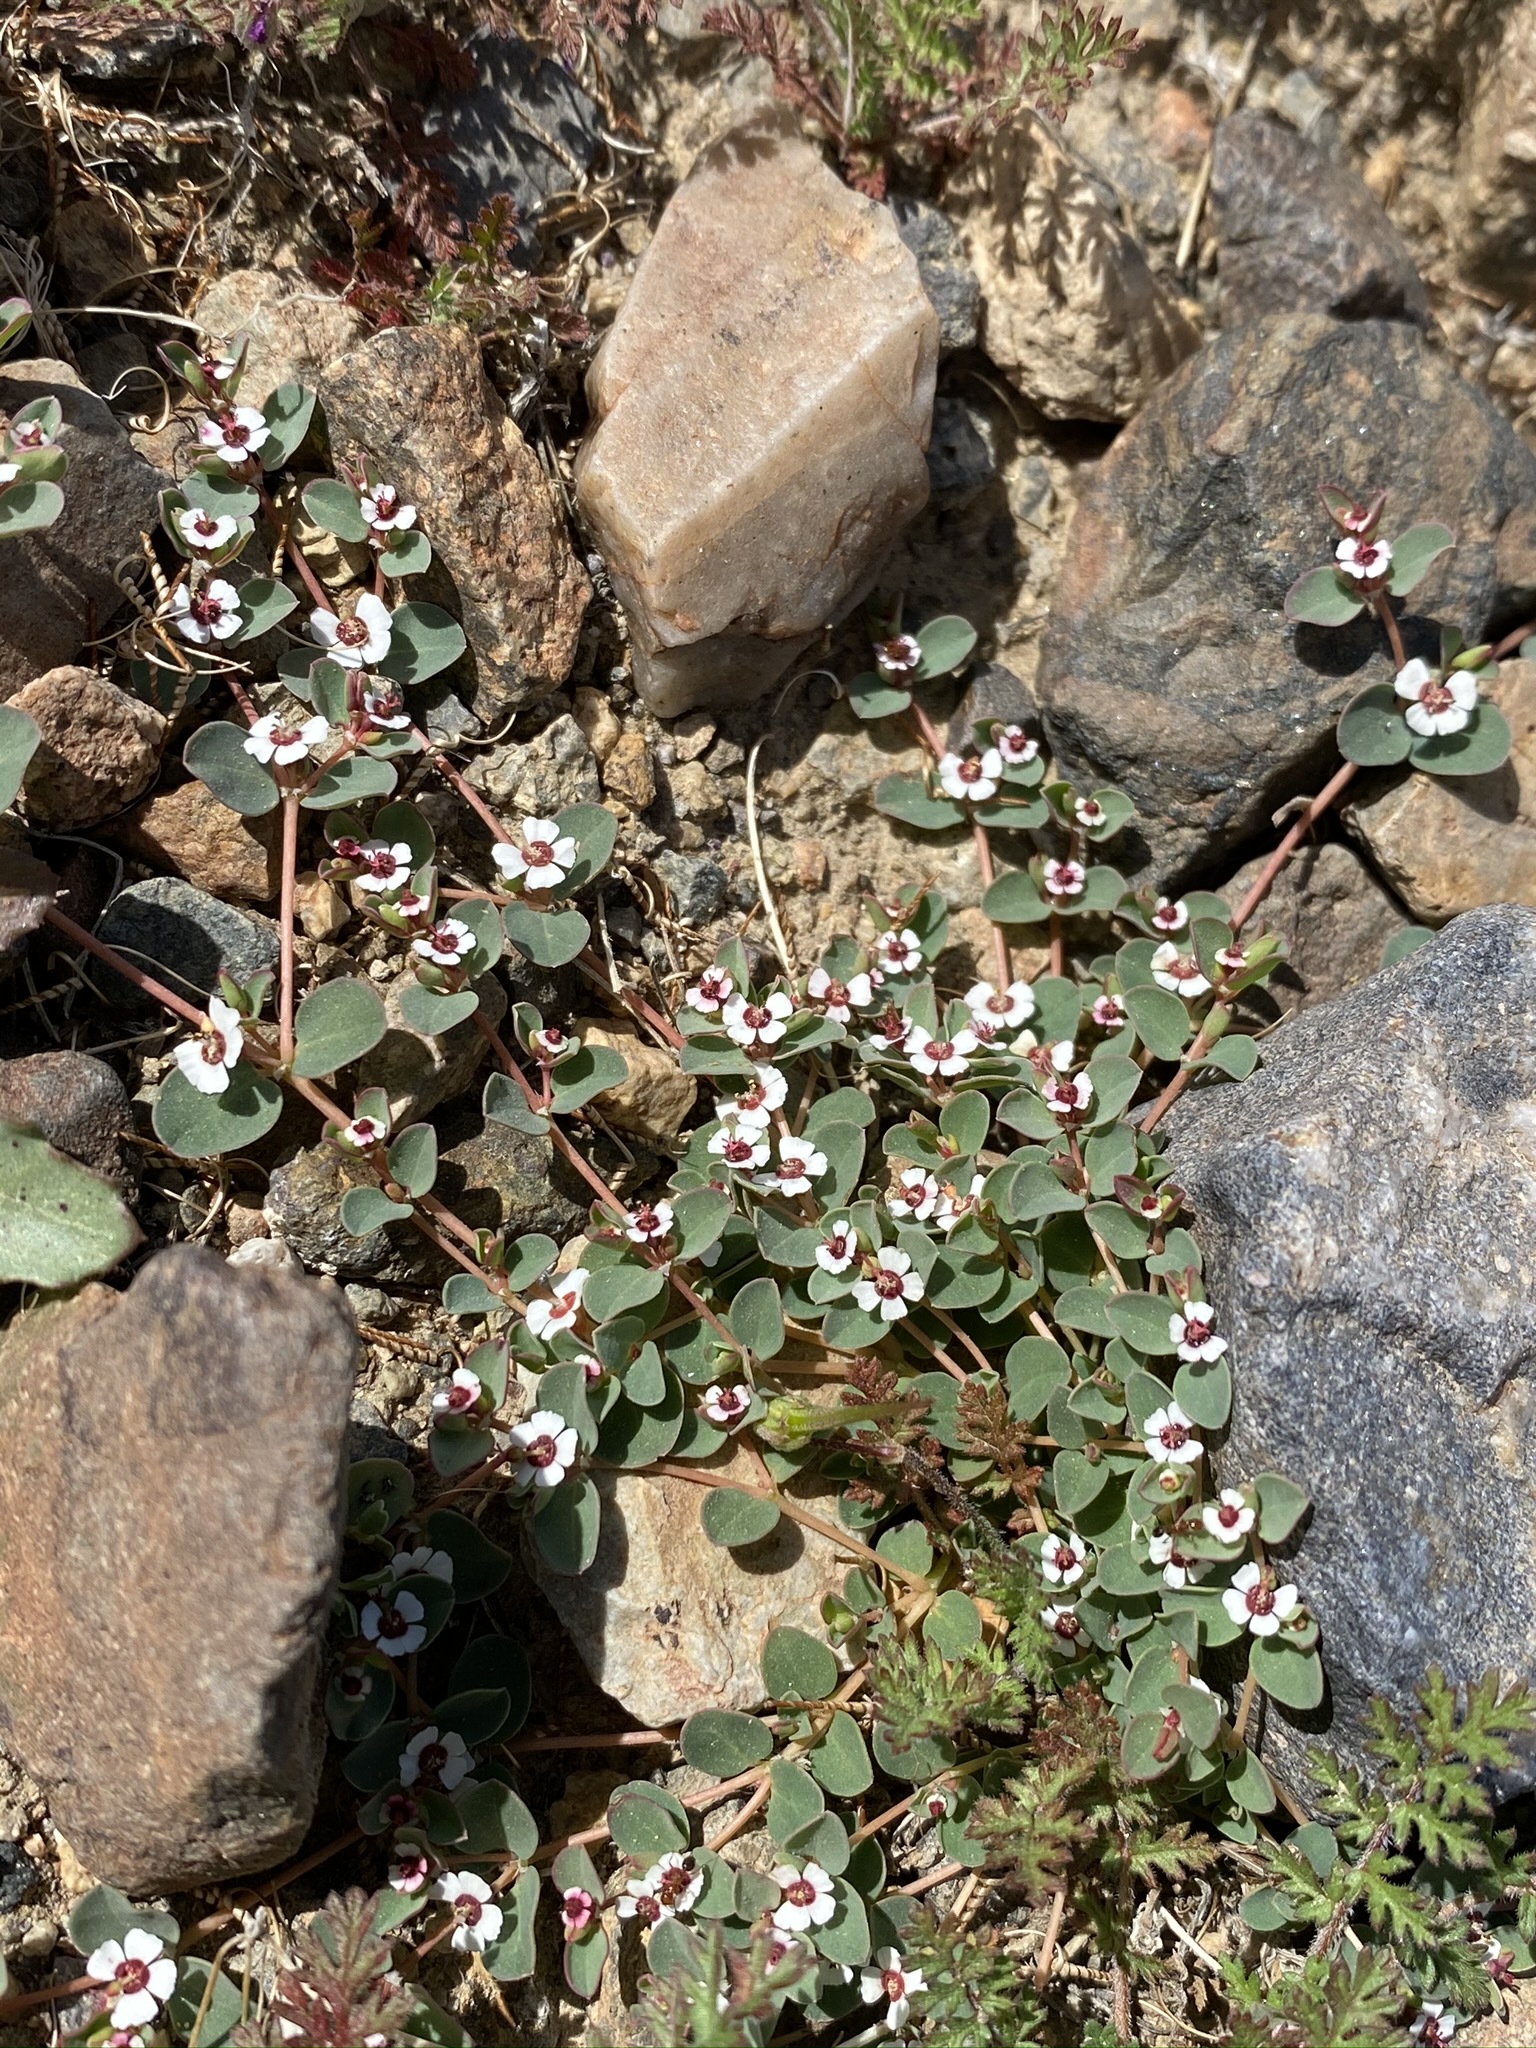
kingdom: Plantae
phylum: Tracheophyta
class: Magnoliopsida
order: Malpighiales
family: Euphorbiaceae
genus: Euphorbia
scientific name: Euphorbia albomarginata
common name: Whitemargin sandmat
